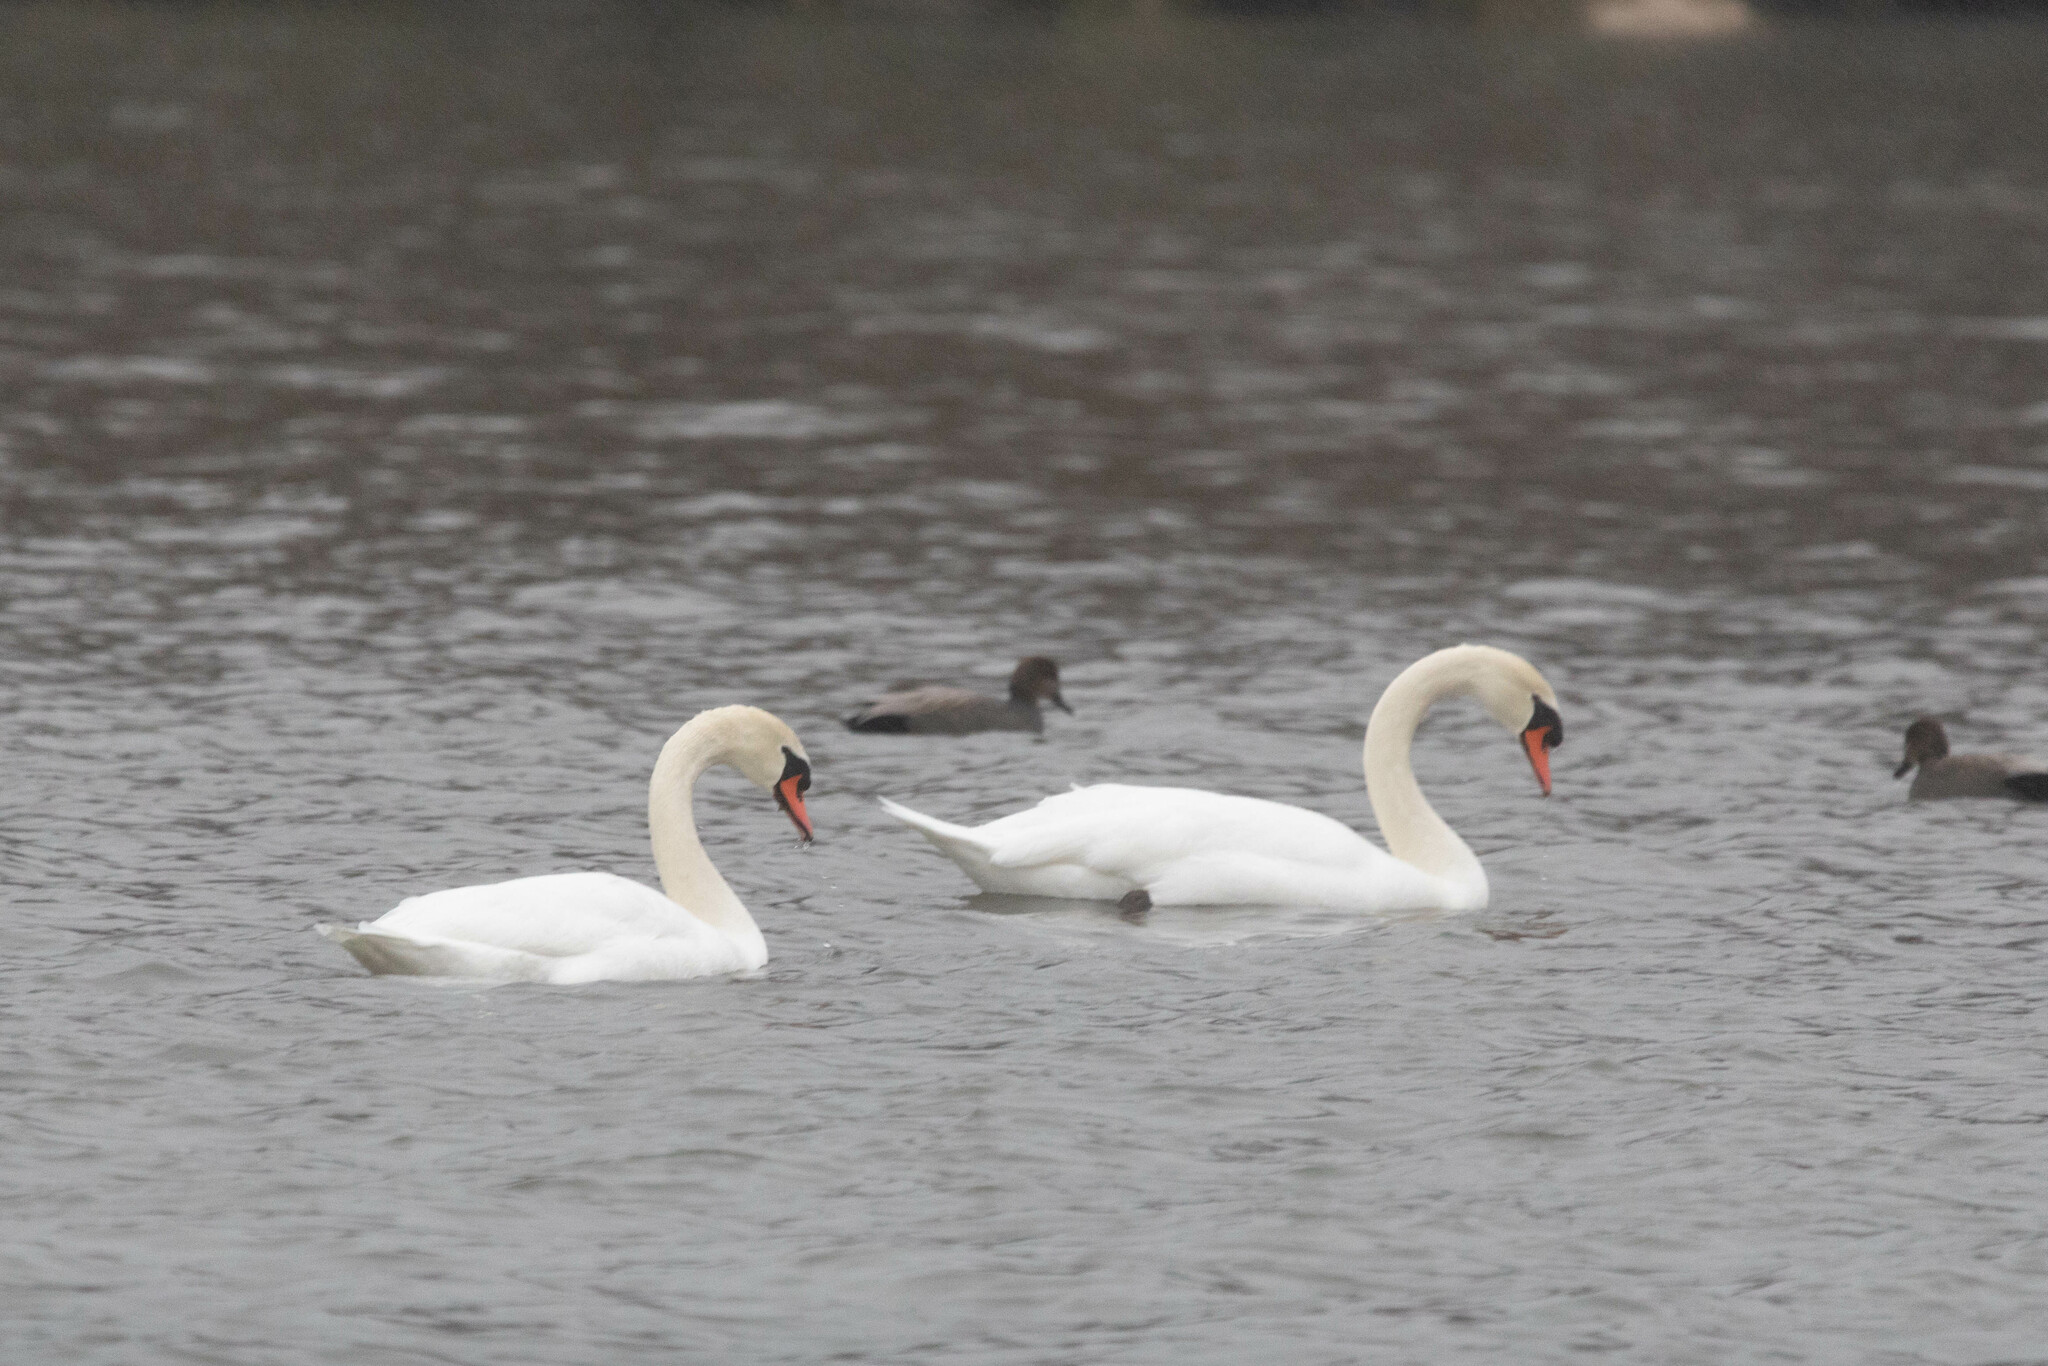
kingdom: Animalia
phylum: Chordata
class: Aves
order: Anseriformes
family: Anatidae
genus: Cygnus
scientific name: Cygnus olor
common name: Mute swan
